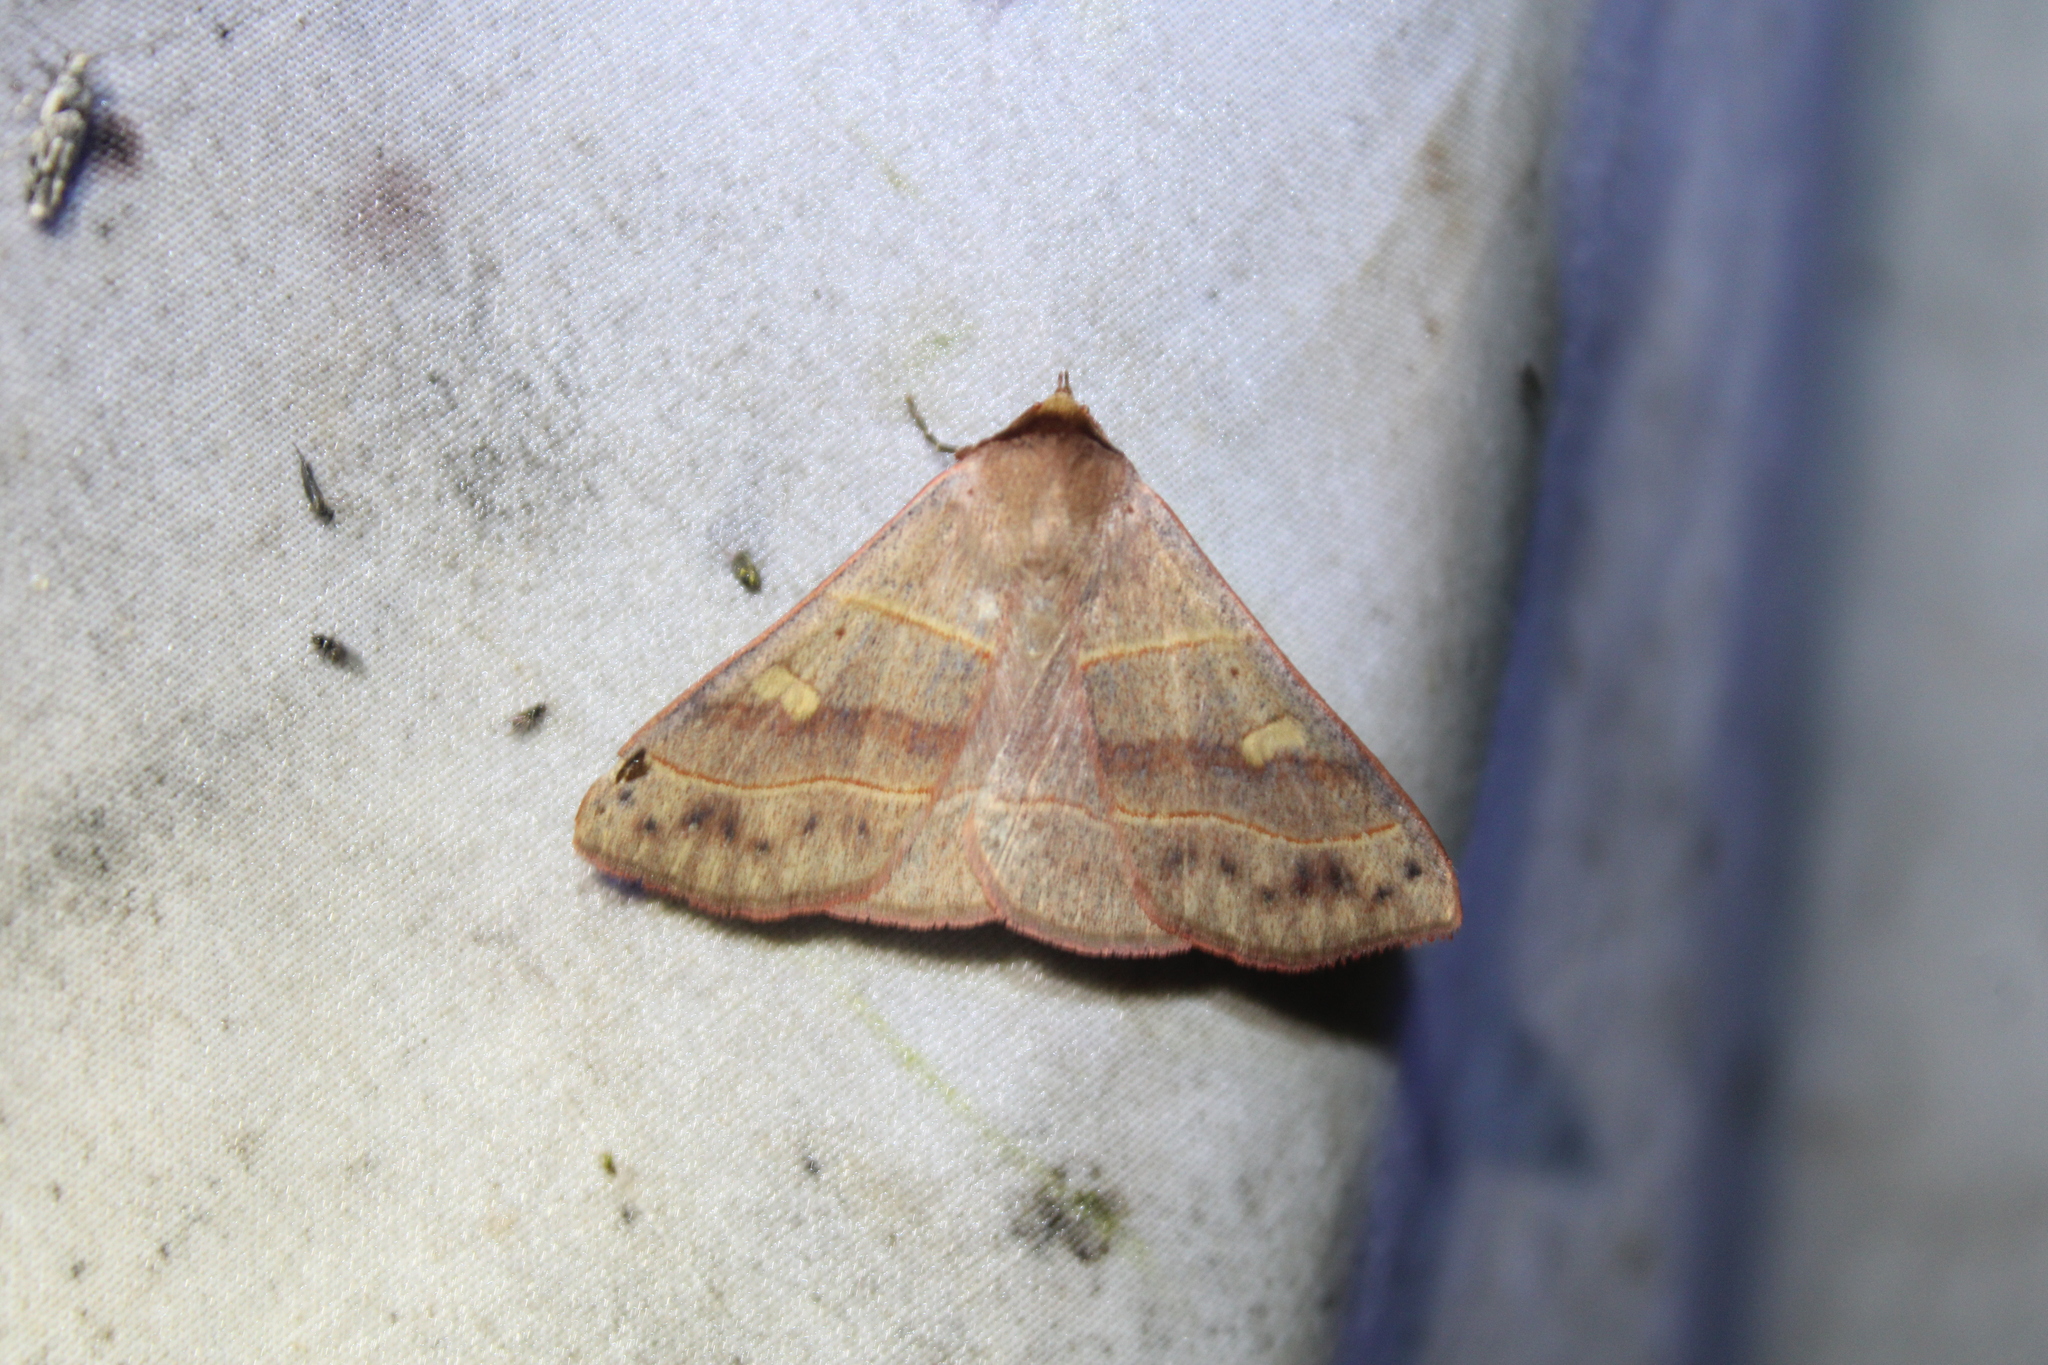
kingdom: Animalia
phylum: Arthropoda
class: Insecta
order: Lepidoptera
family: Erebidae
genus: Panopoda
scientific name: Panopoda rufimargo
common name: Red-lined panopoda moth
